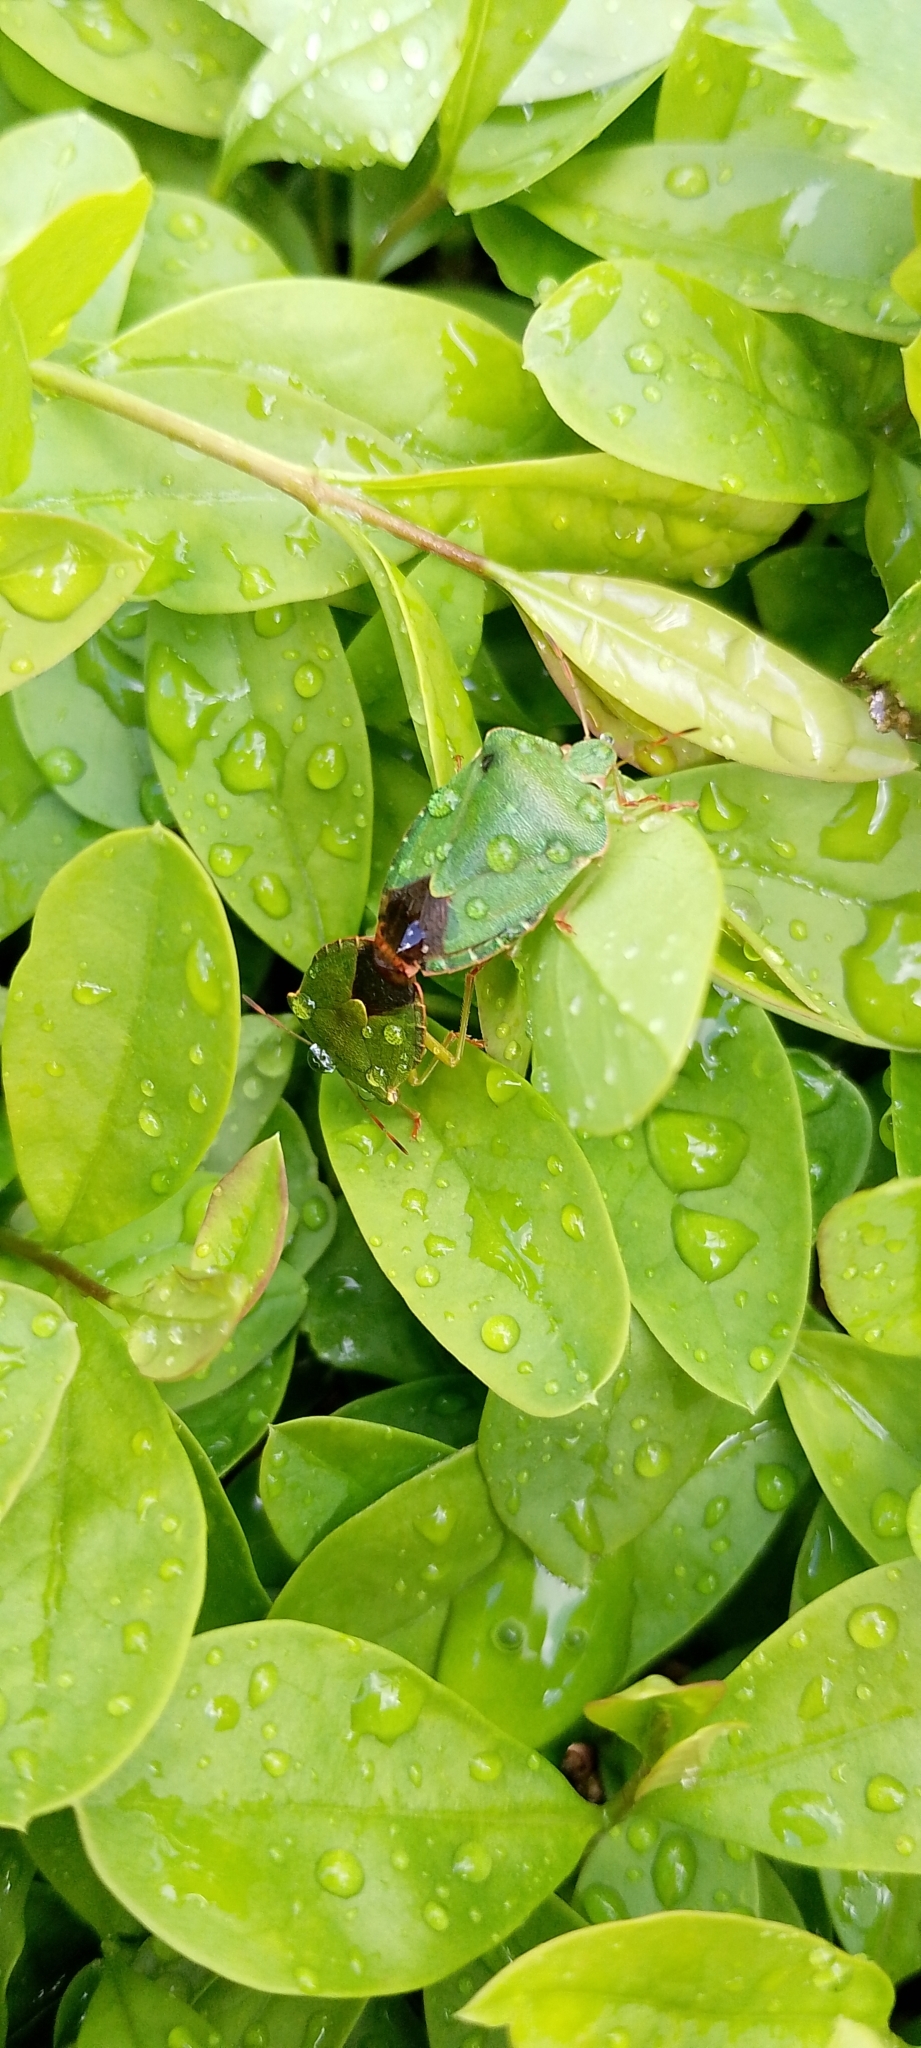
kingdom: Animalia
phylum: Arthropoda
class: Insecta
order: Hemiptera
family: Pentatomidae
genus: Palomena
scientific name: Palomena prasina
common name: Green shieldbug
